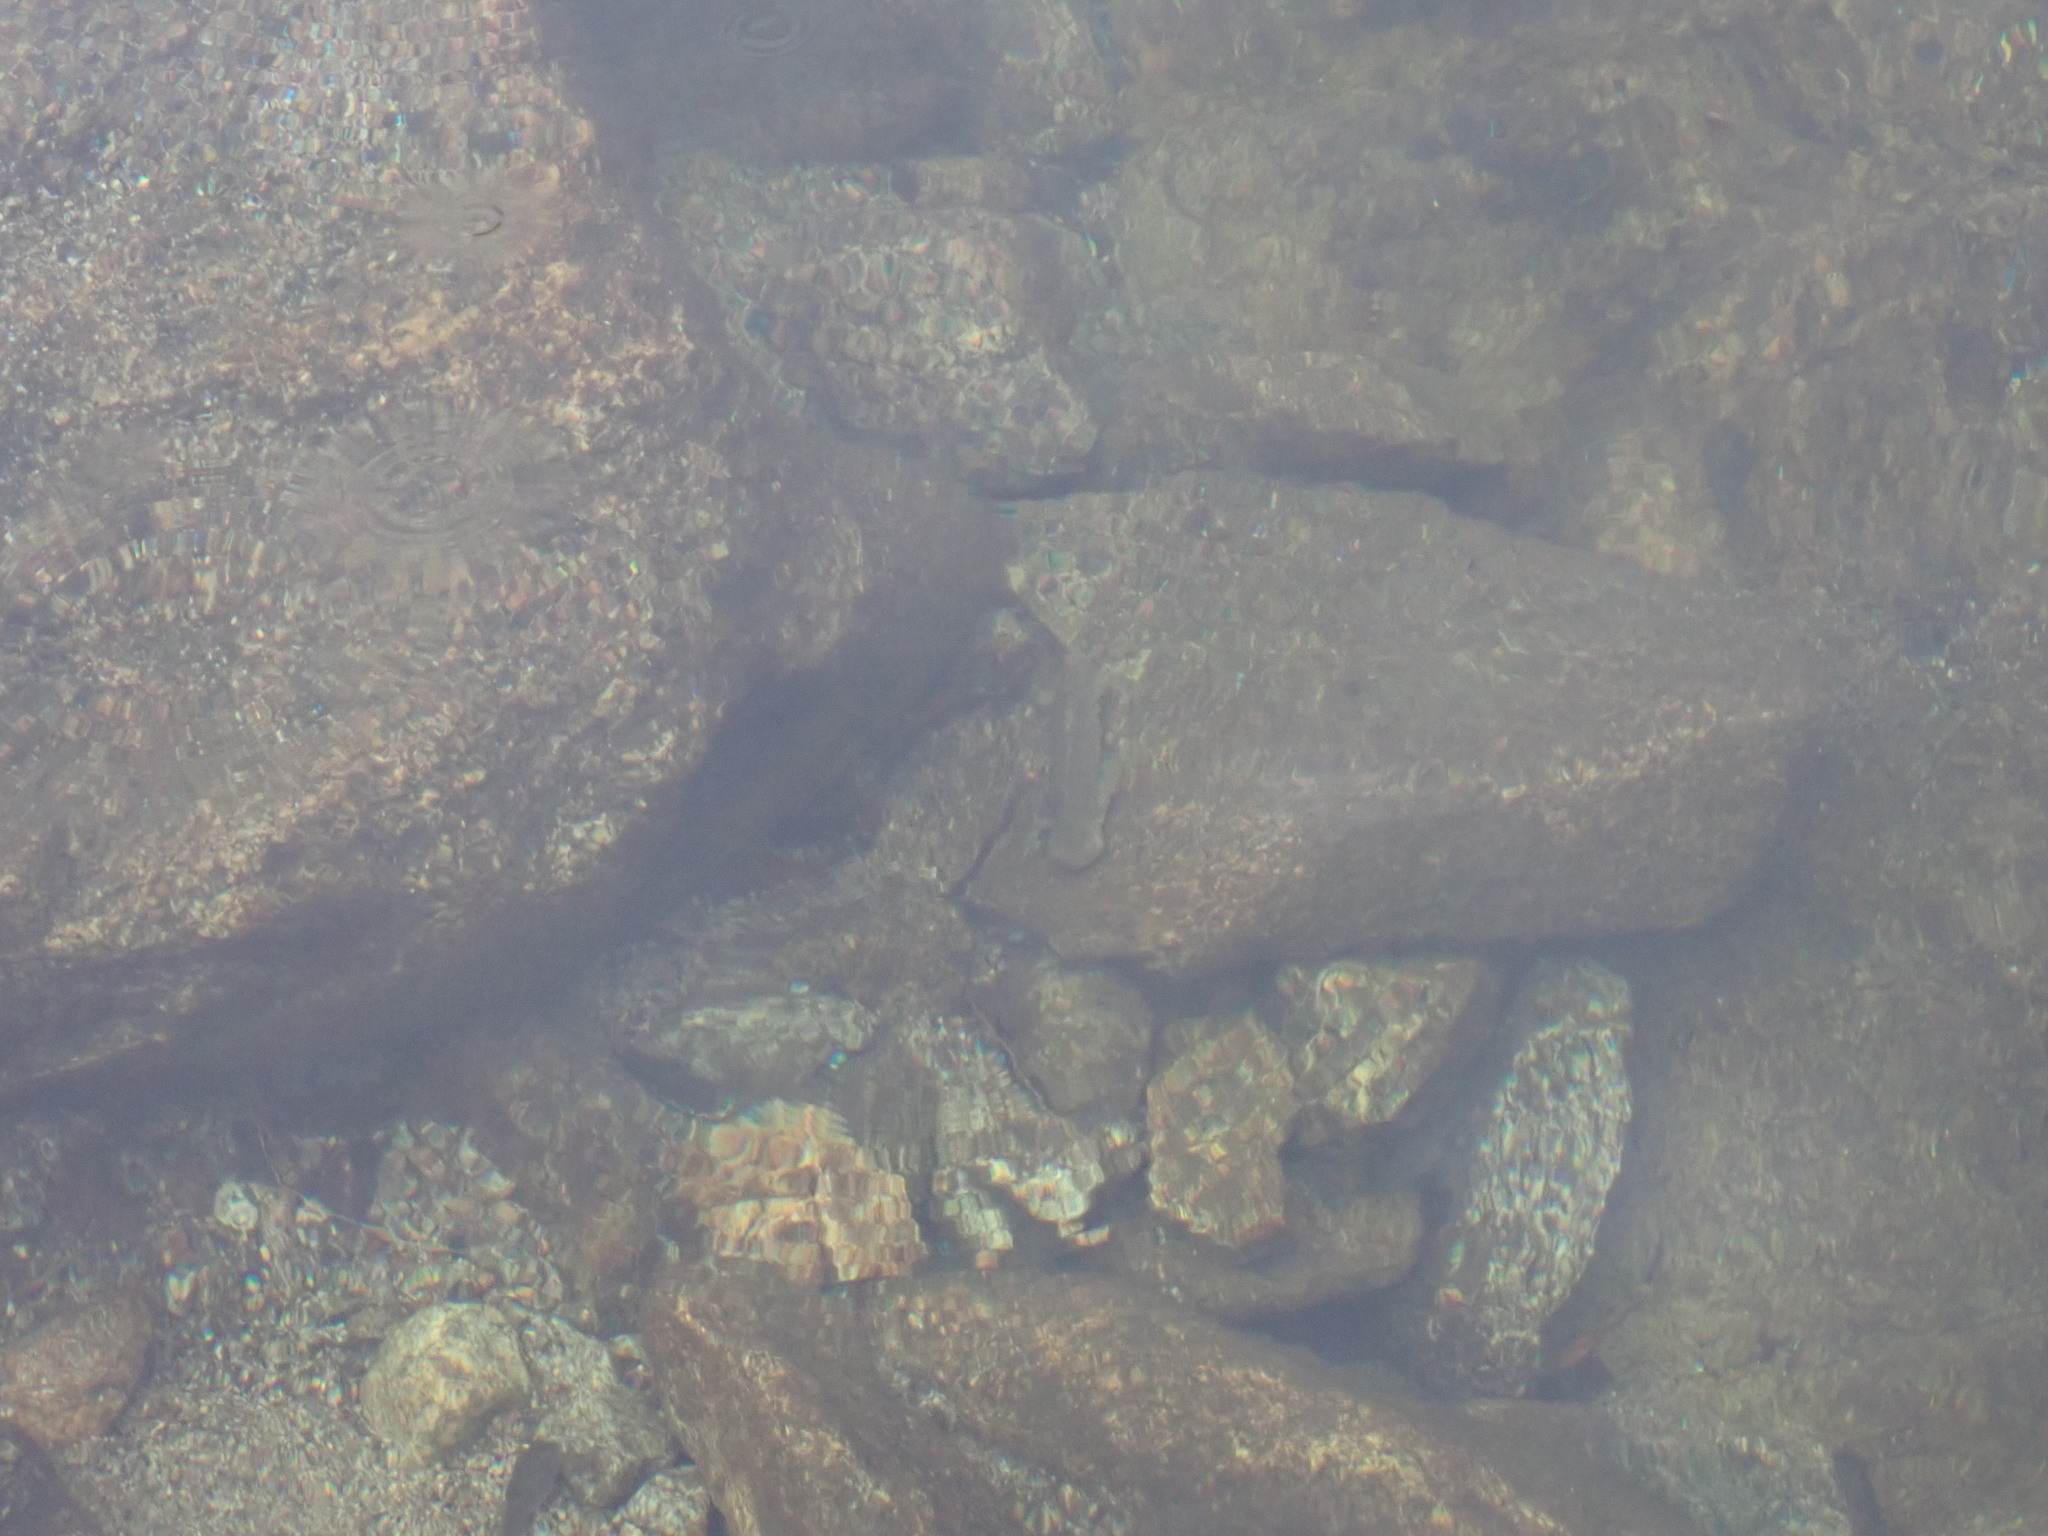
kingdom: Animalia
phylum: Chordata
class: Amphibia
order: Caudata
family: Salamandridae
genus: Calotriton
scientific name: Calotriton asper
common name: Pyrenean brook salamander
